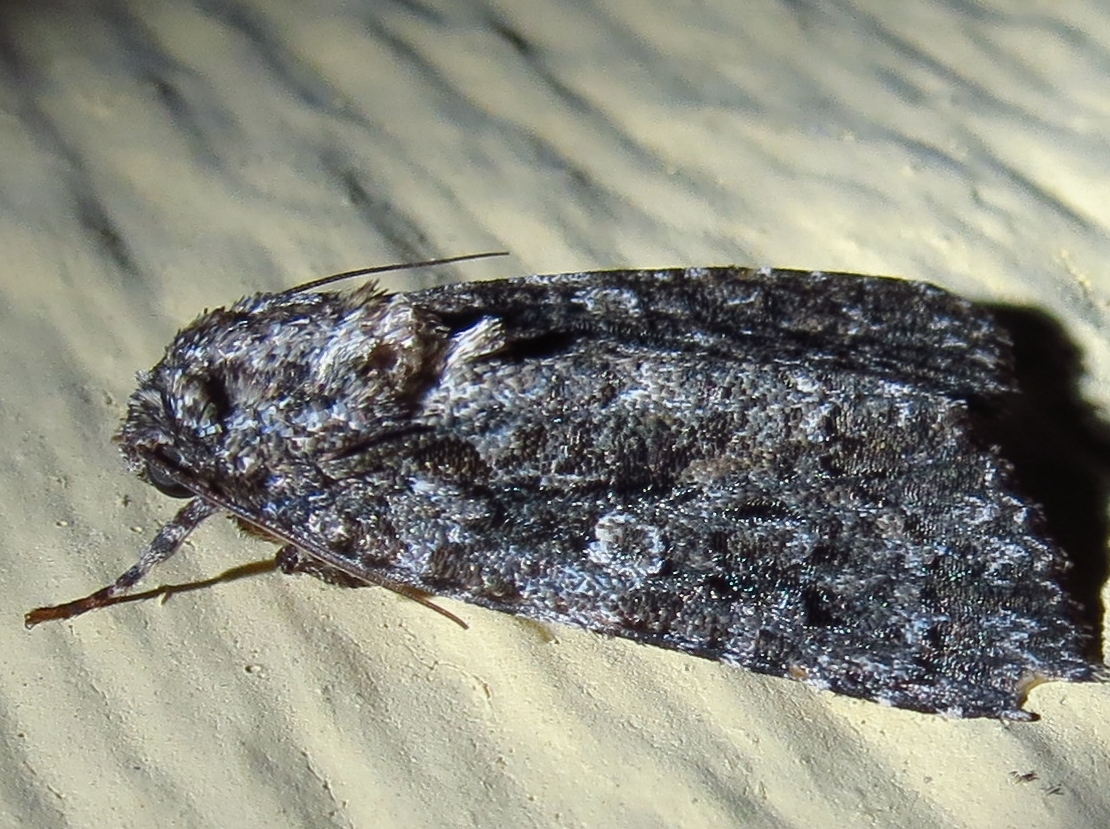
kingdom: Animalia
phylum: Arthropoda
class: Insecta
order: Lepidoptera
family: Noctuidae
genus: Acronicta
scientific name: Acronicta afflicta
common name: Afflicted dagger moth
